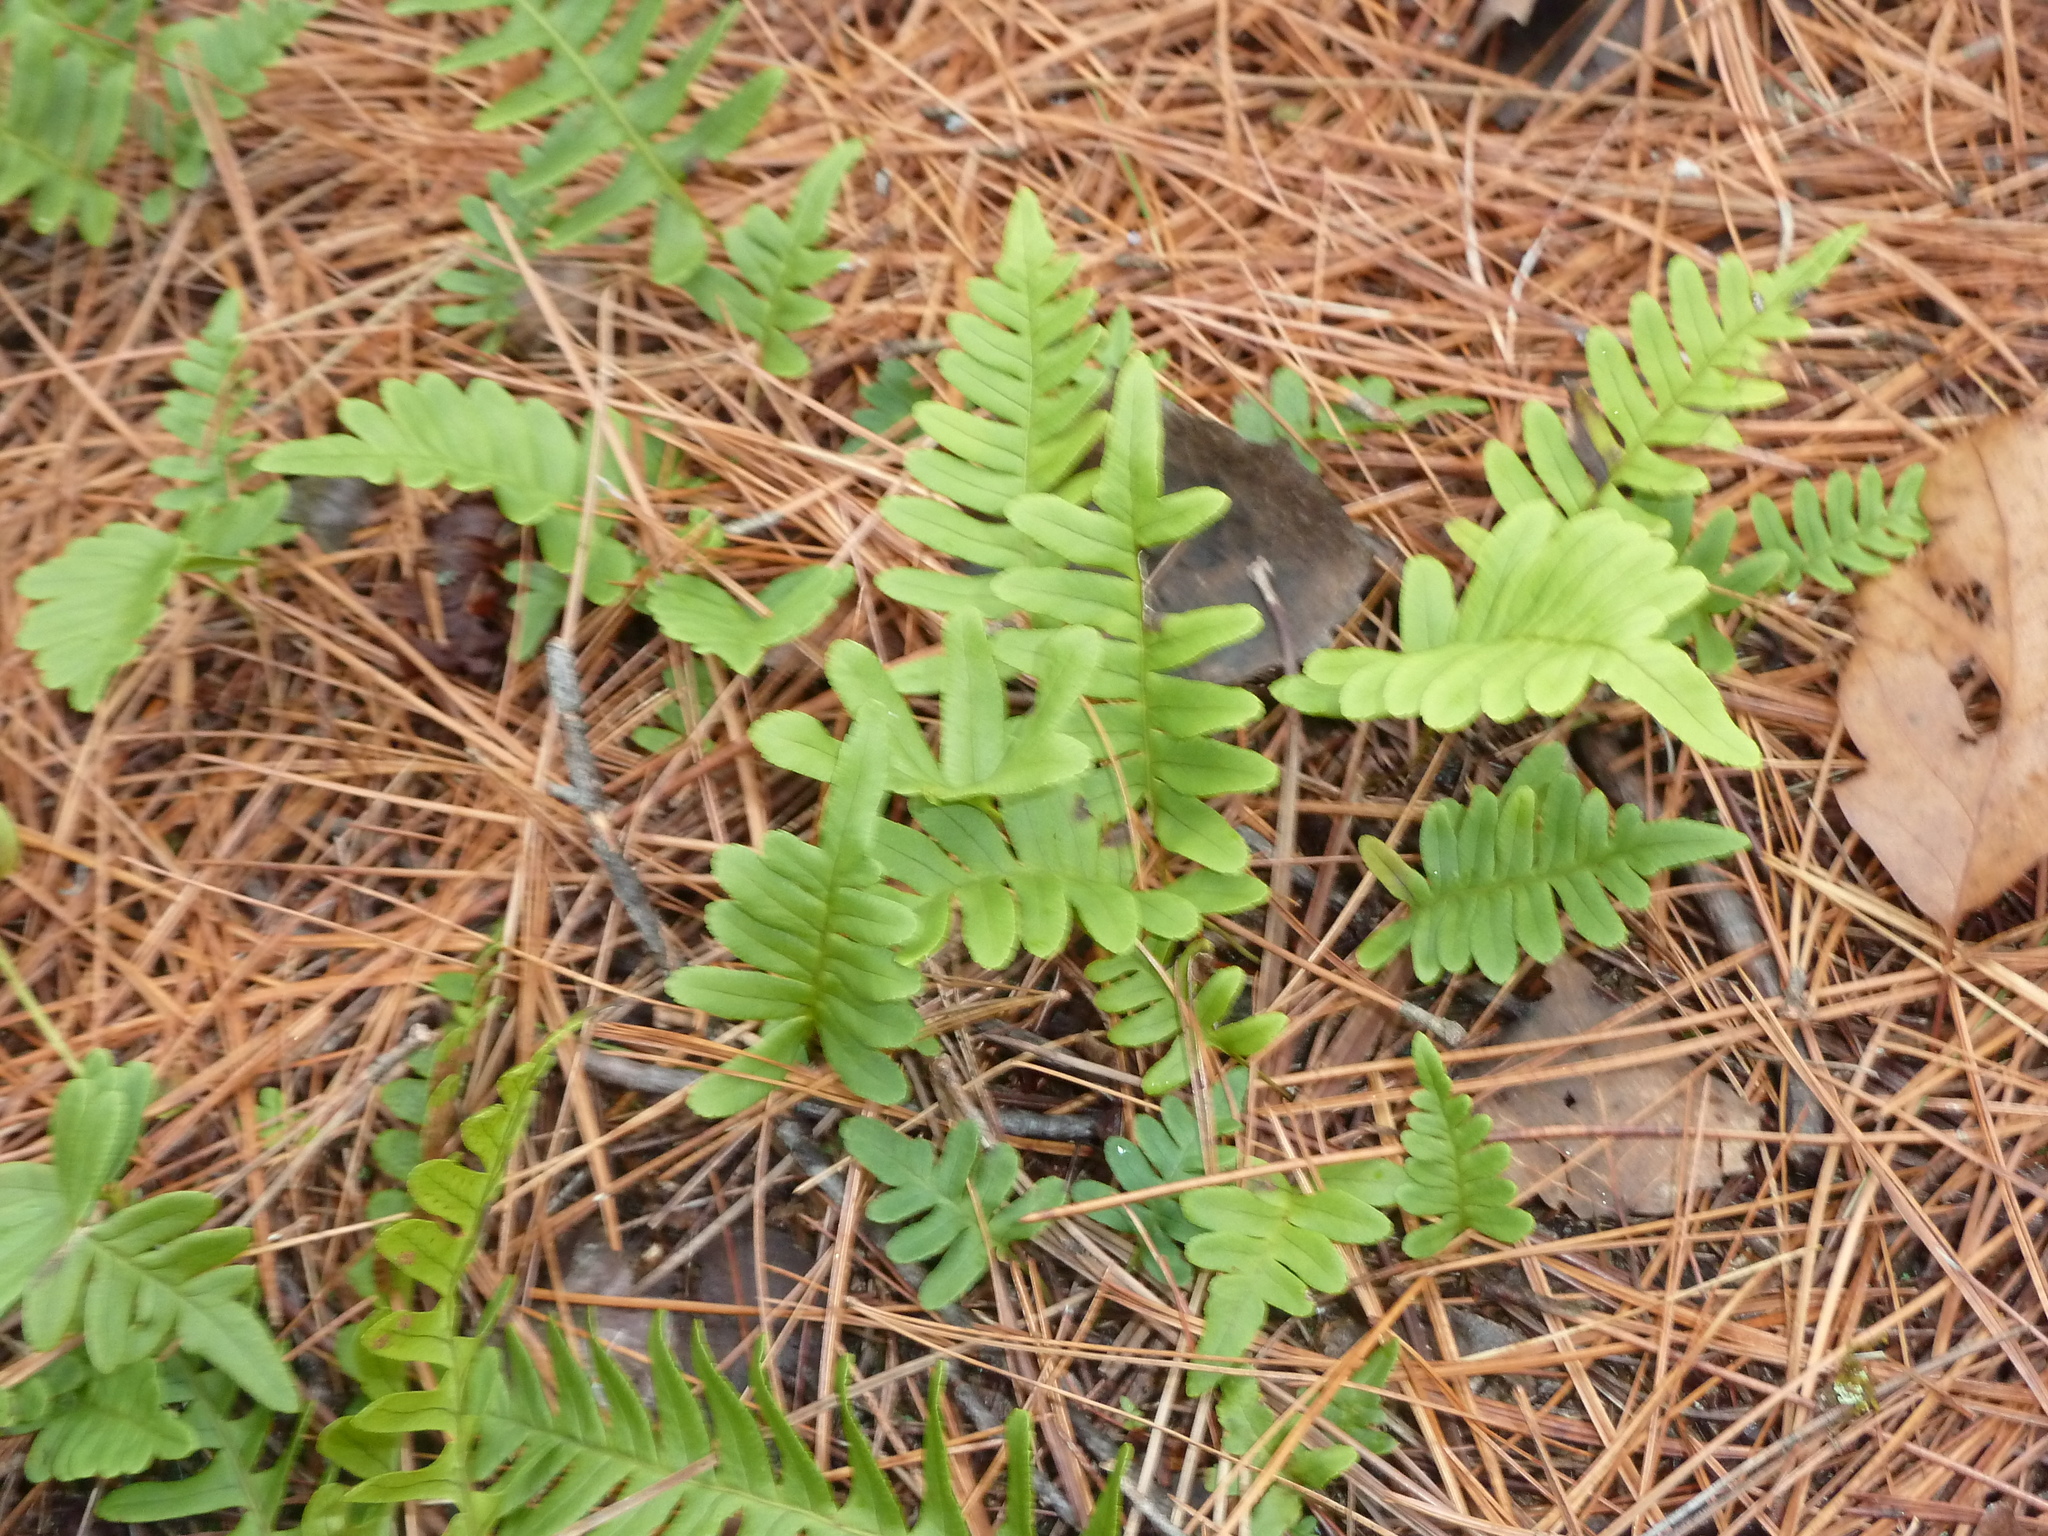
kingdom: Plantae
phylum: Tracheophyta
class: Polypodiopsida
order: Polypodiales
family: Polypodiaceae
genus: Polypodium
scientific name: Polypodium virginianum
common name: American wall fern
